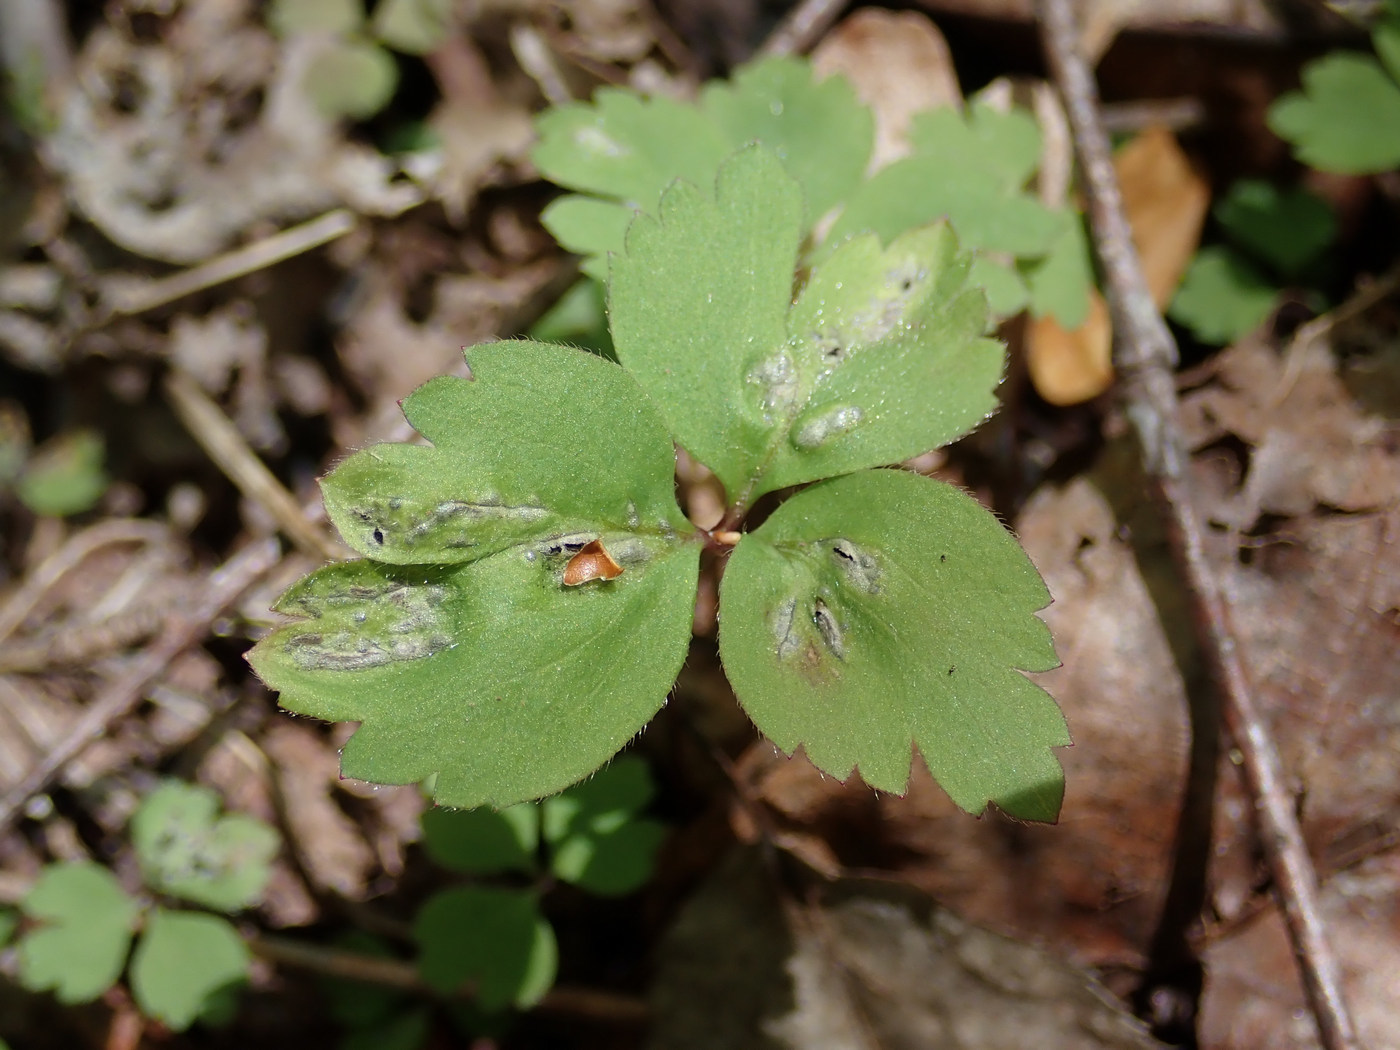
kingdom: Fungi
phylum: Basidiomycota
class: Ustilaginomycetes
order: Urocystidales
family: Urocystidaceae
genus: Urocystis
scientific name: Urocystis anemones
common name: Anemone smut
